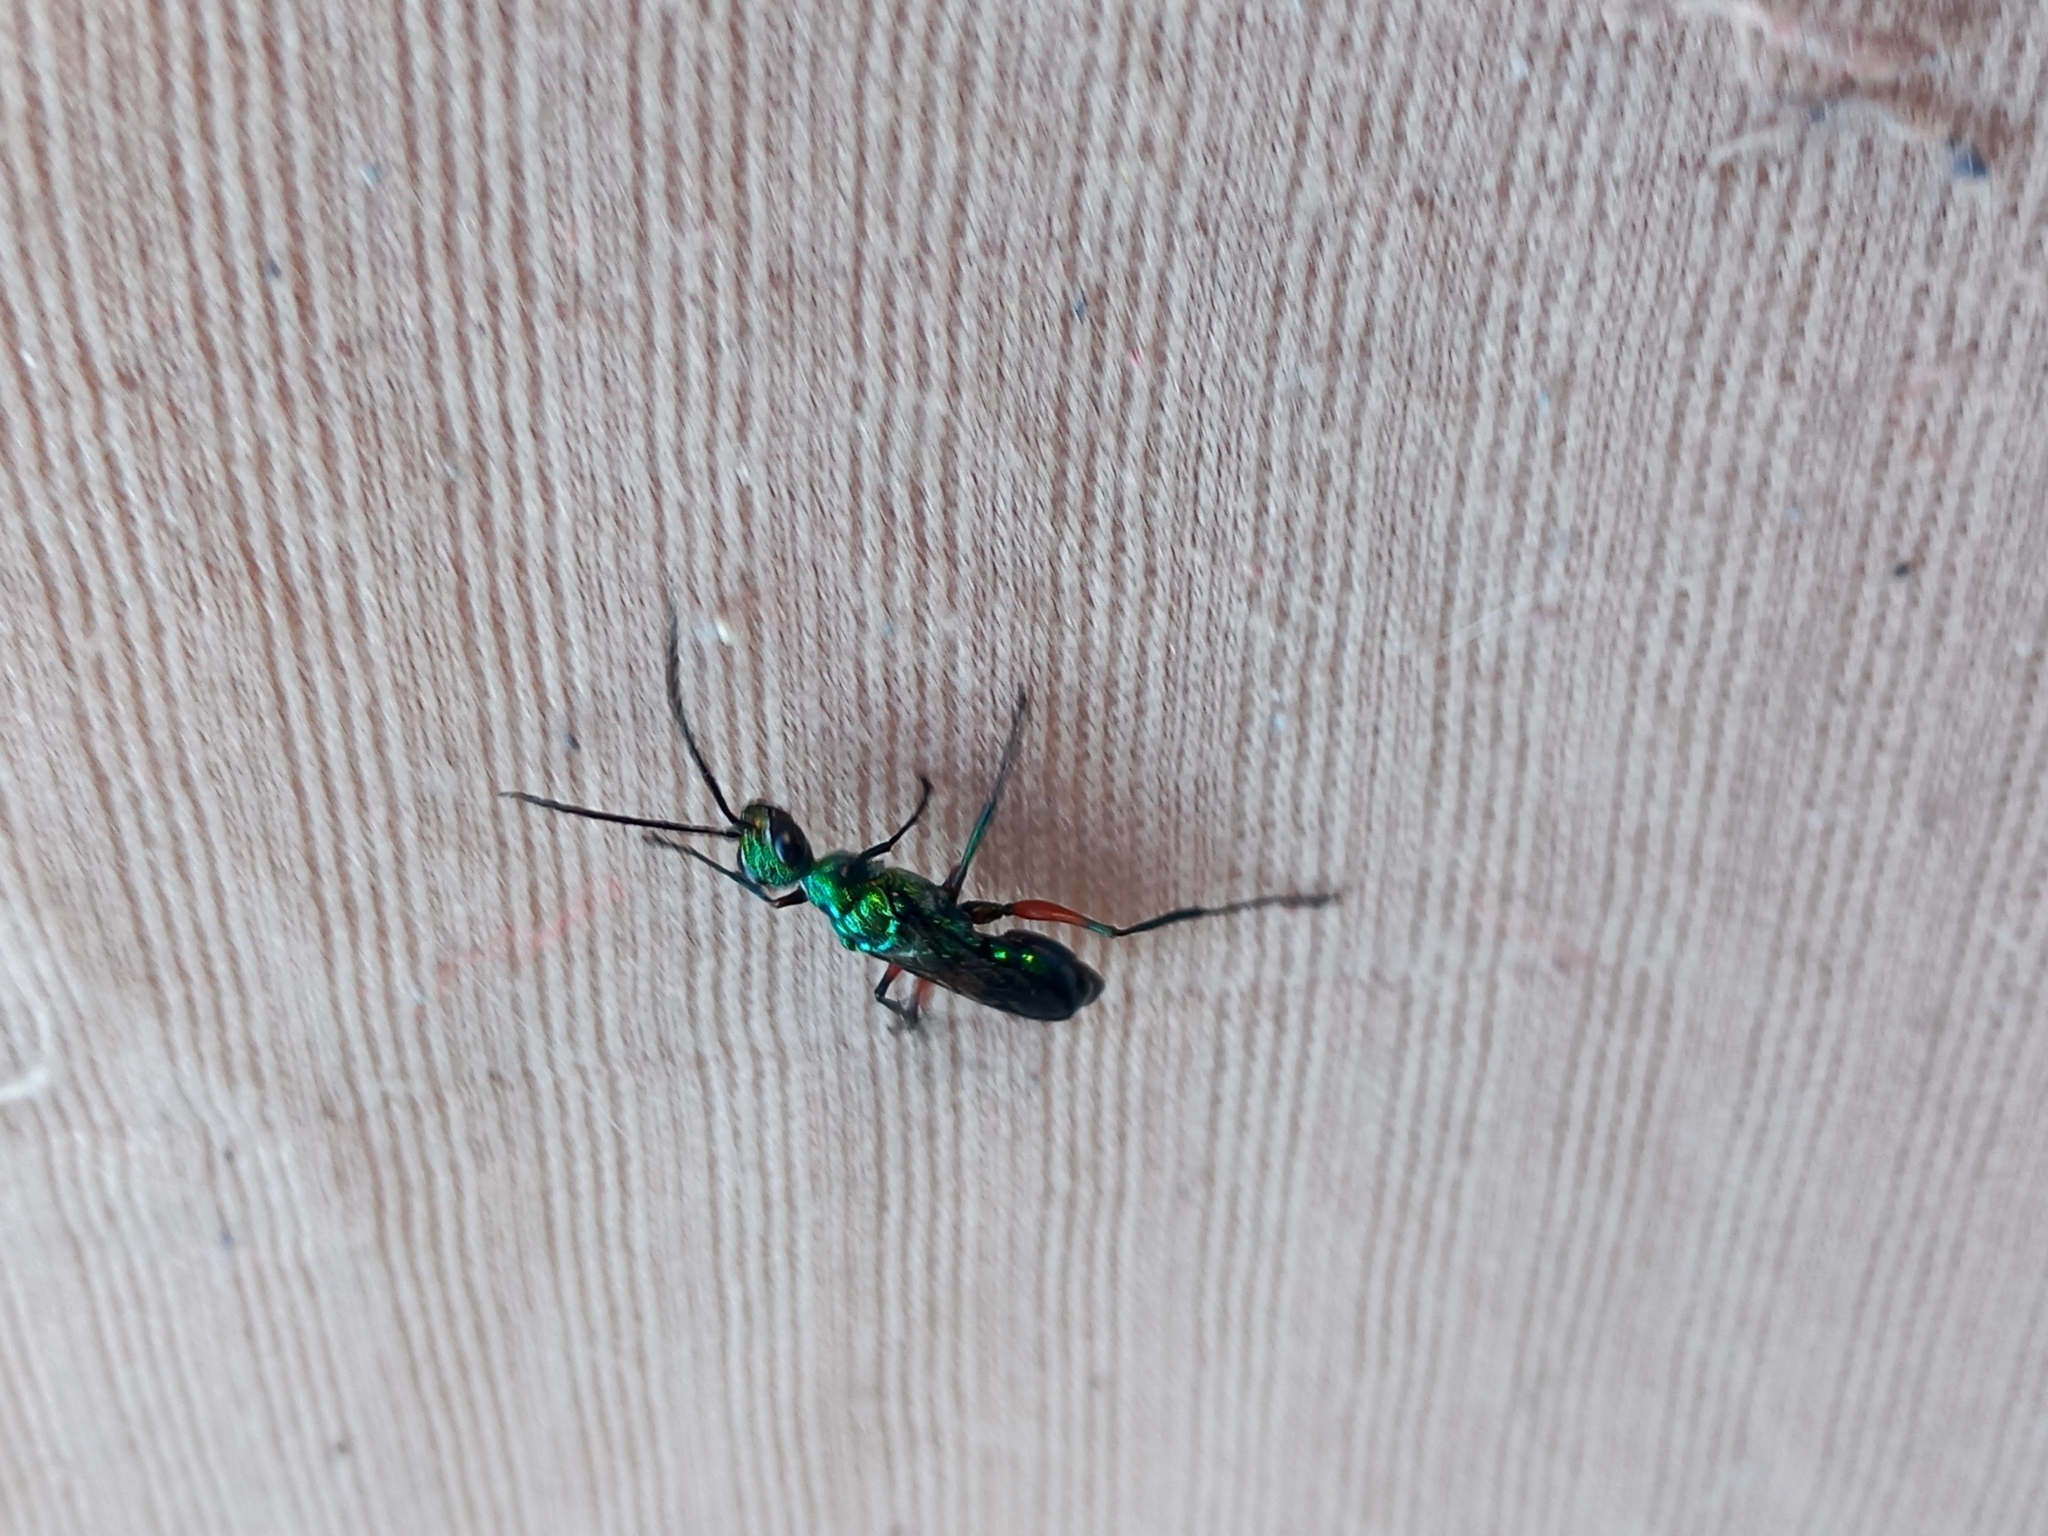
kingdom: Animalia
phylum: Arthropoda
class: Insecta
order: Hymenoptera
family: Ampulicidae
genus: Ampulex
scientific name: Ampulex compressa
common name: Emerald cockroach wasp
